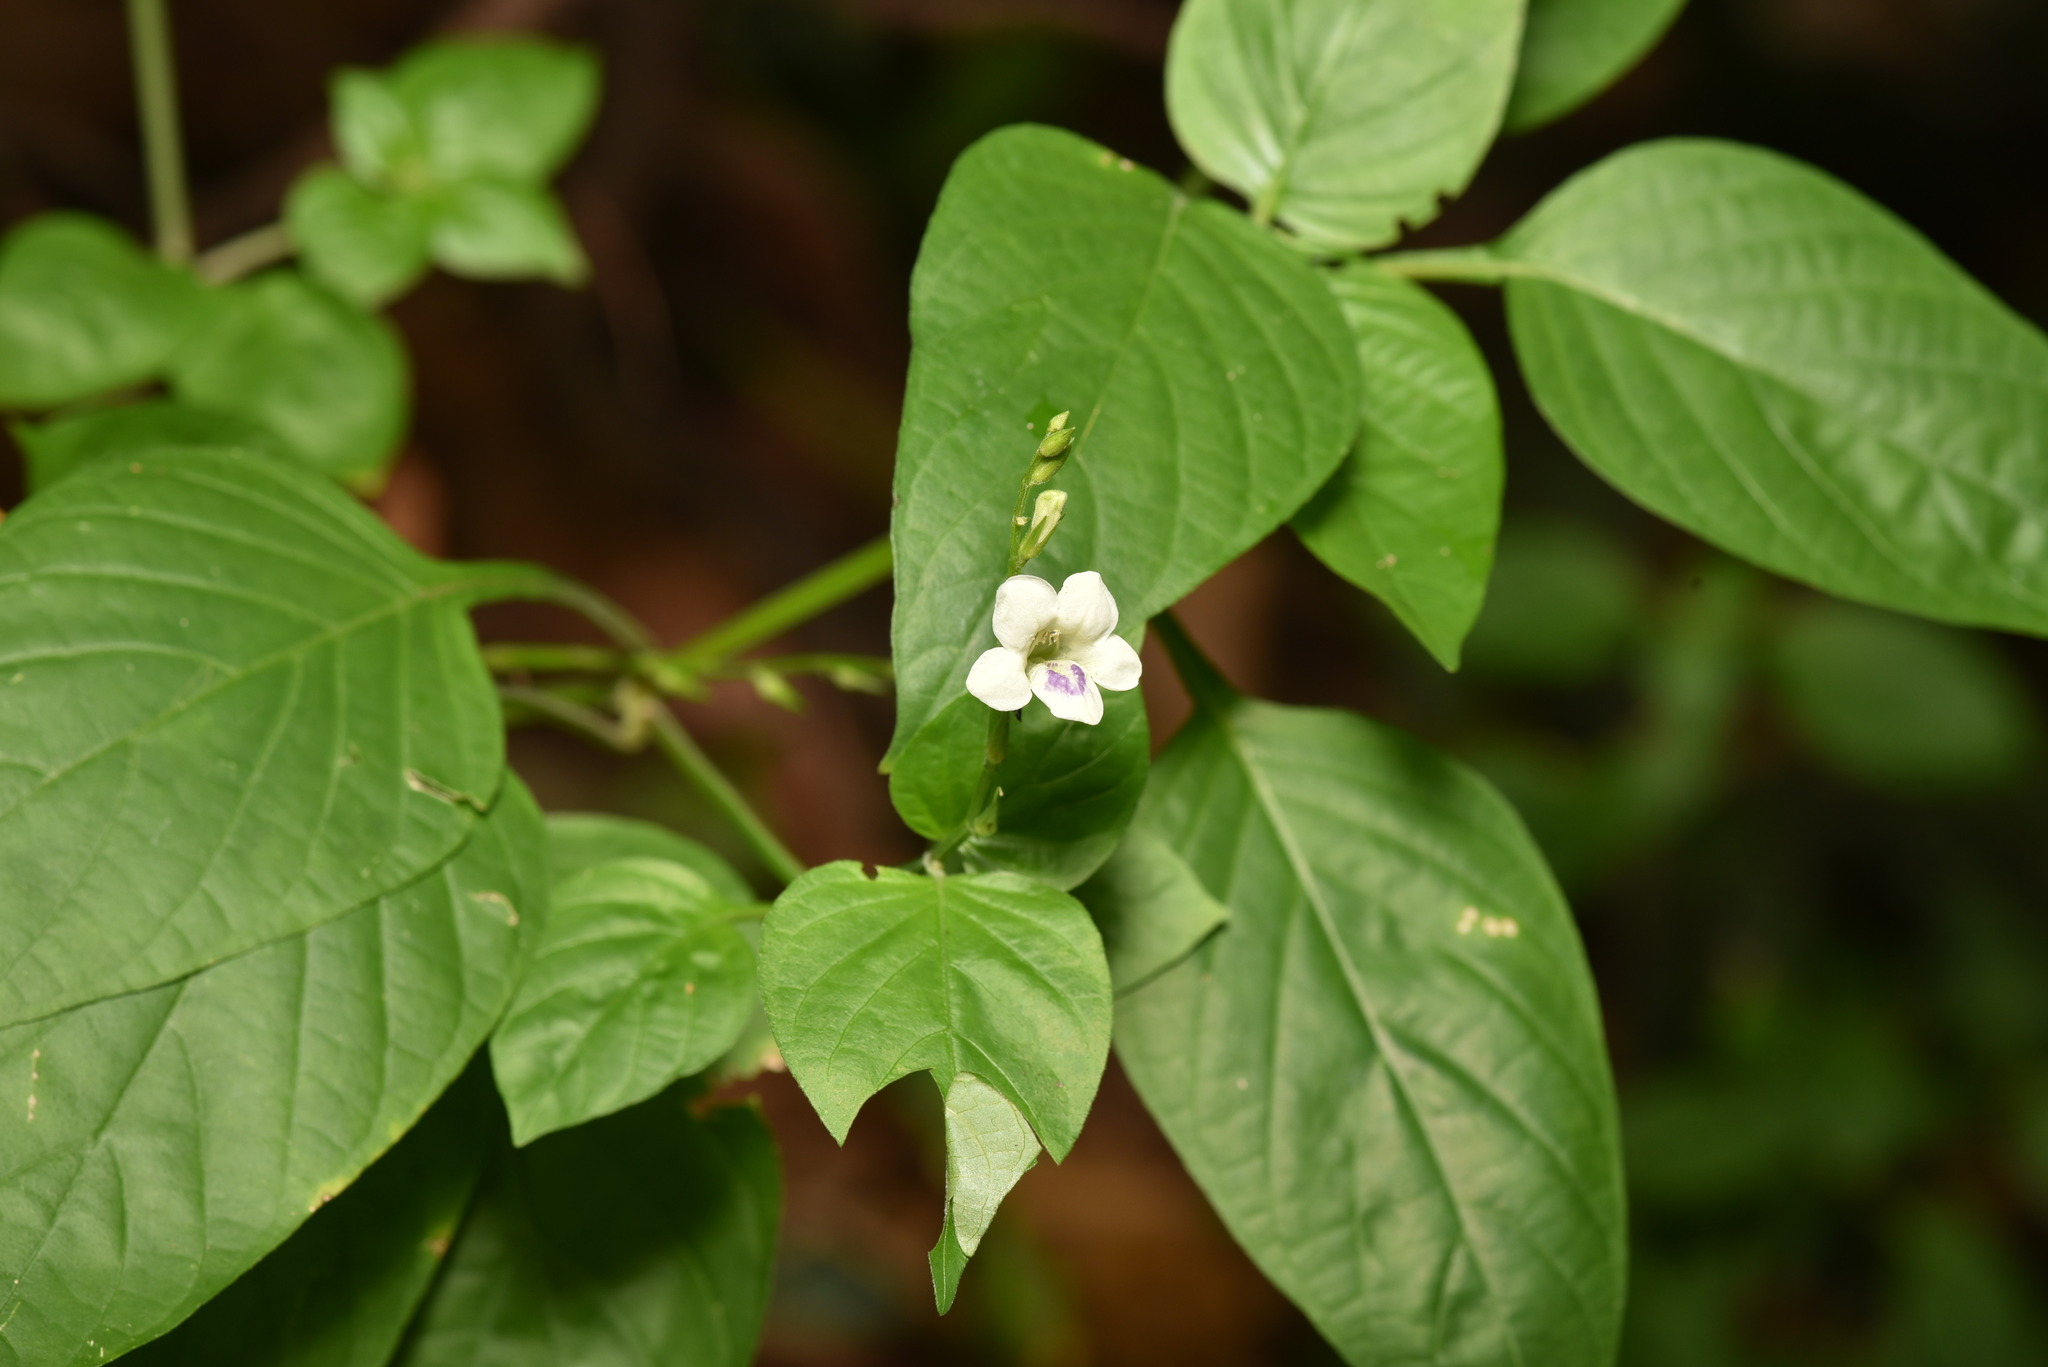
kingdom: Plantae
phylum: Tracheophyta
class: Magnoliopsida
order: Lamiales
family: Acanthaceae
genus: Asystasia
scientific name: Asystasia intrusa
